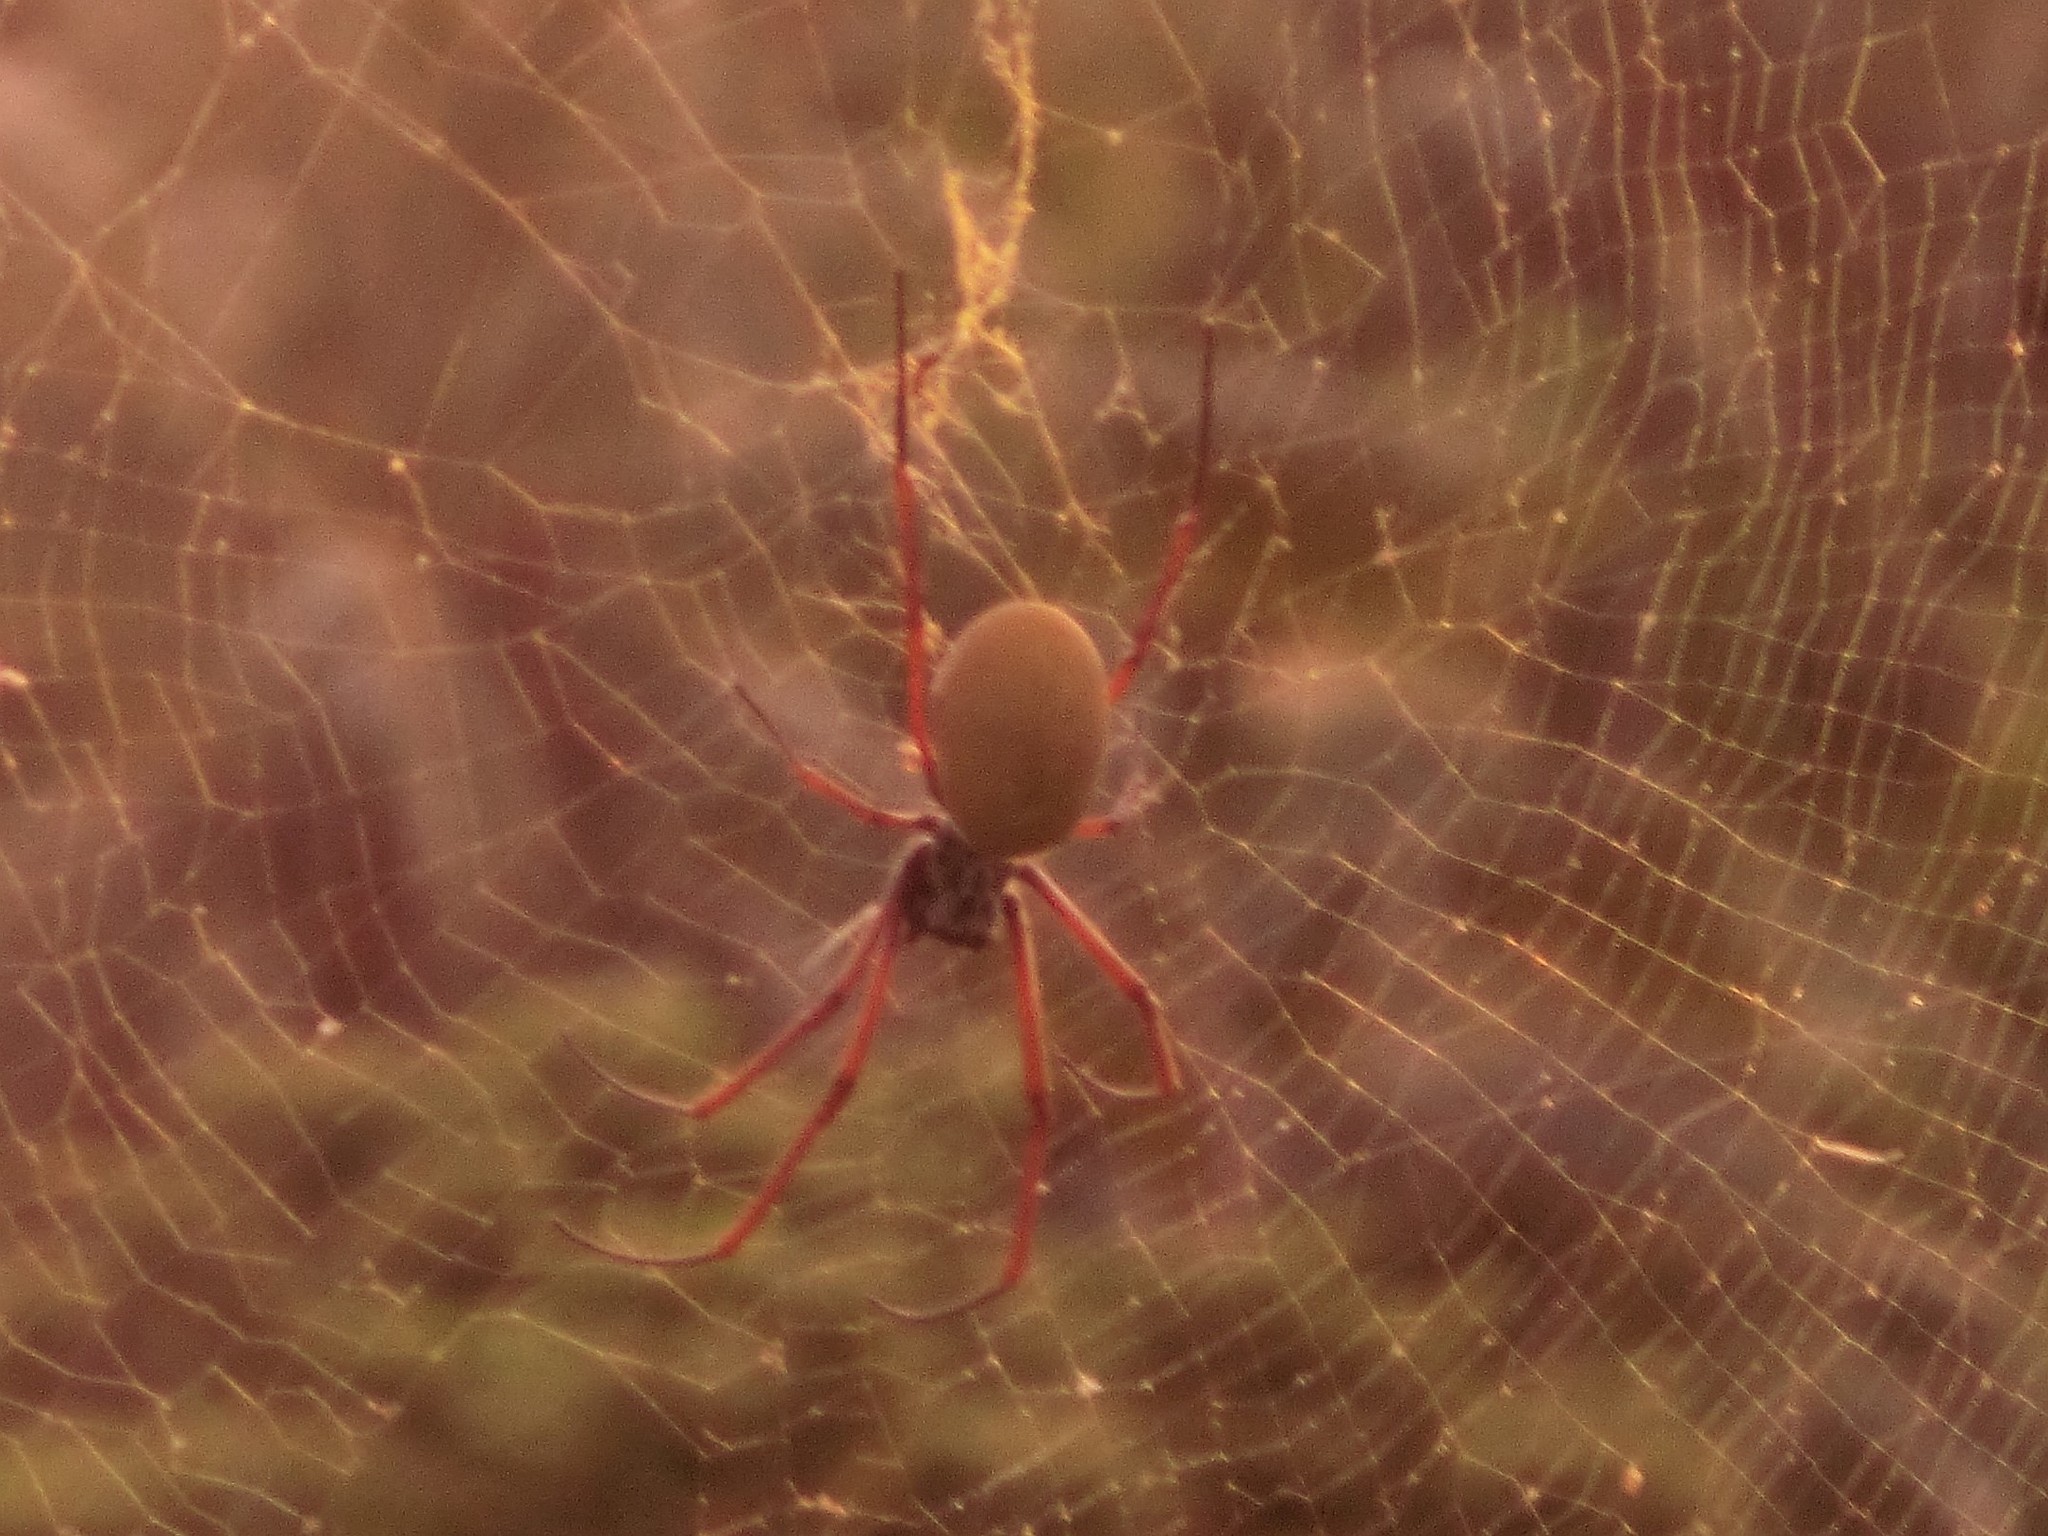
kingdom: Animalia
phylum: Arthropoda
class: Arachnida
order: Araneae
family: Araneidae
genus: Trichonephila
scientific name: Trichonephila plumipes
